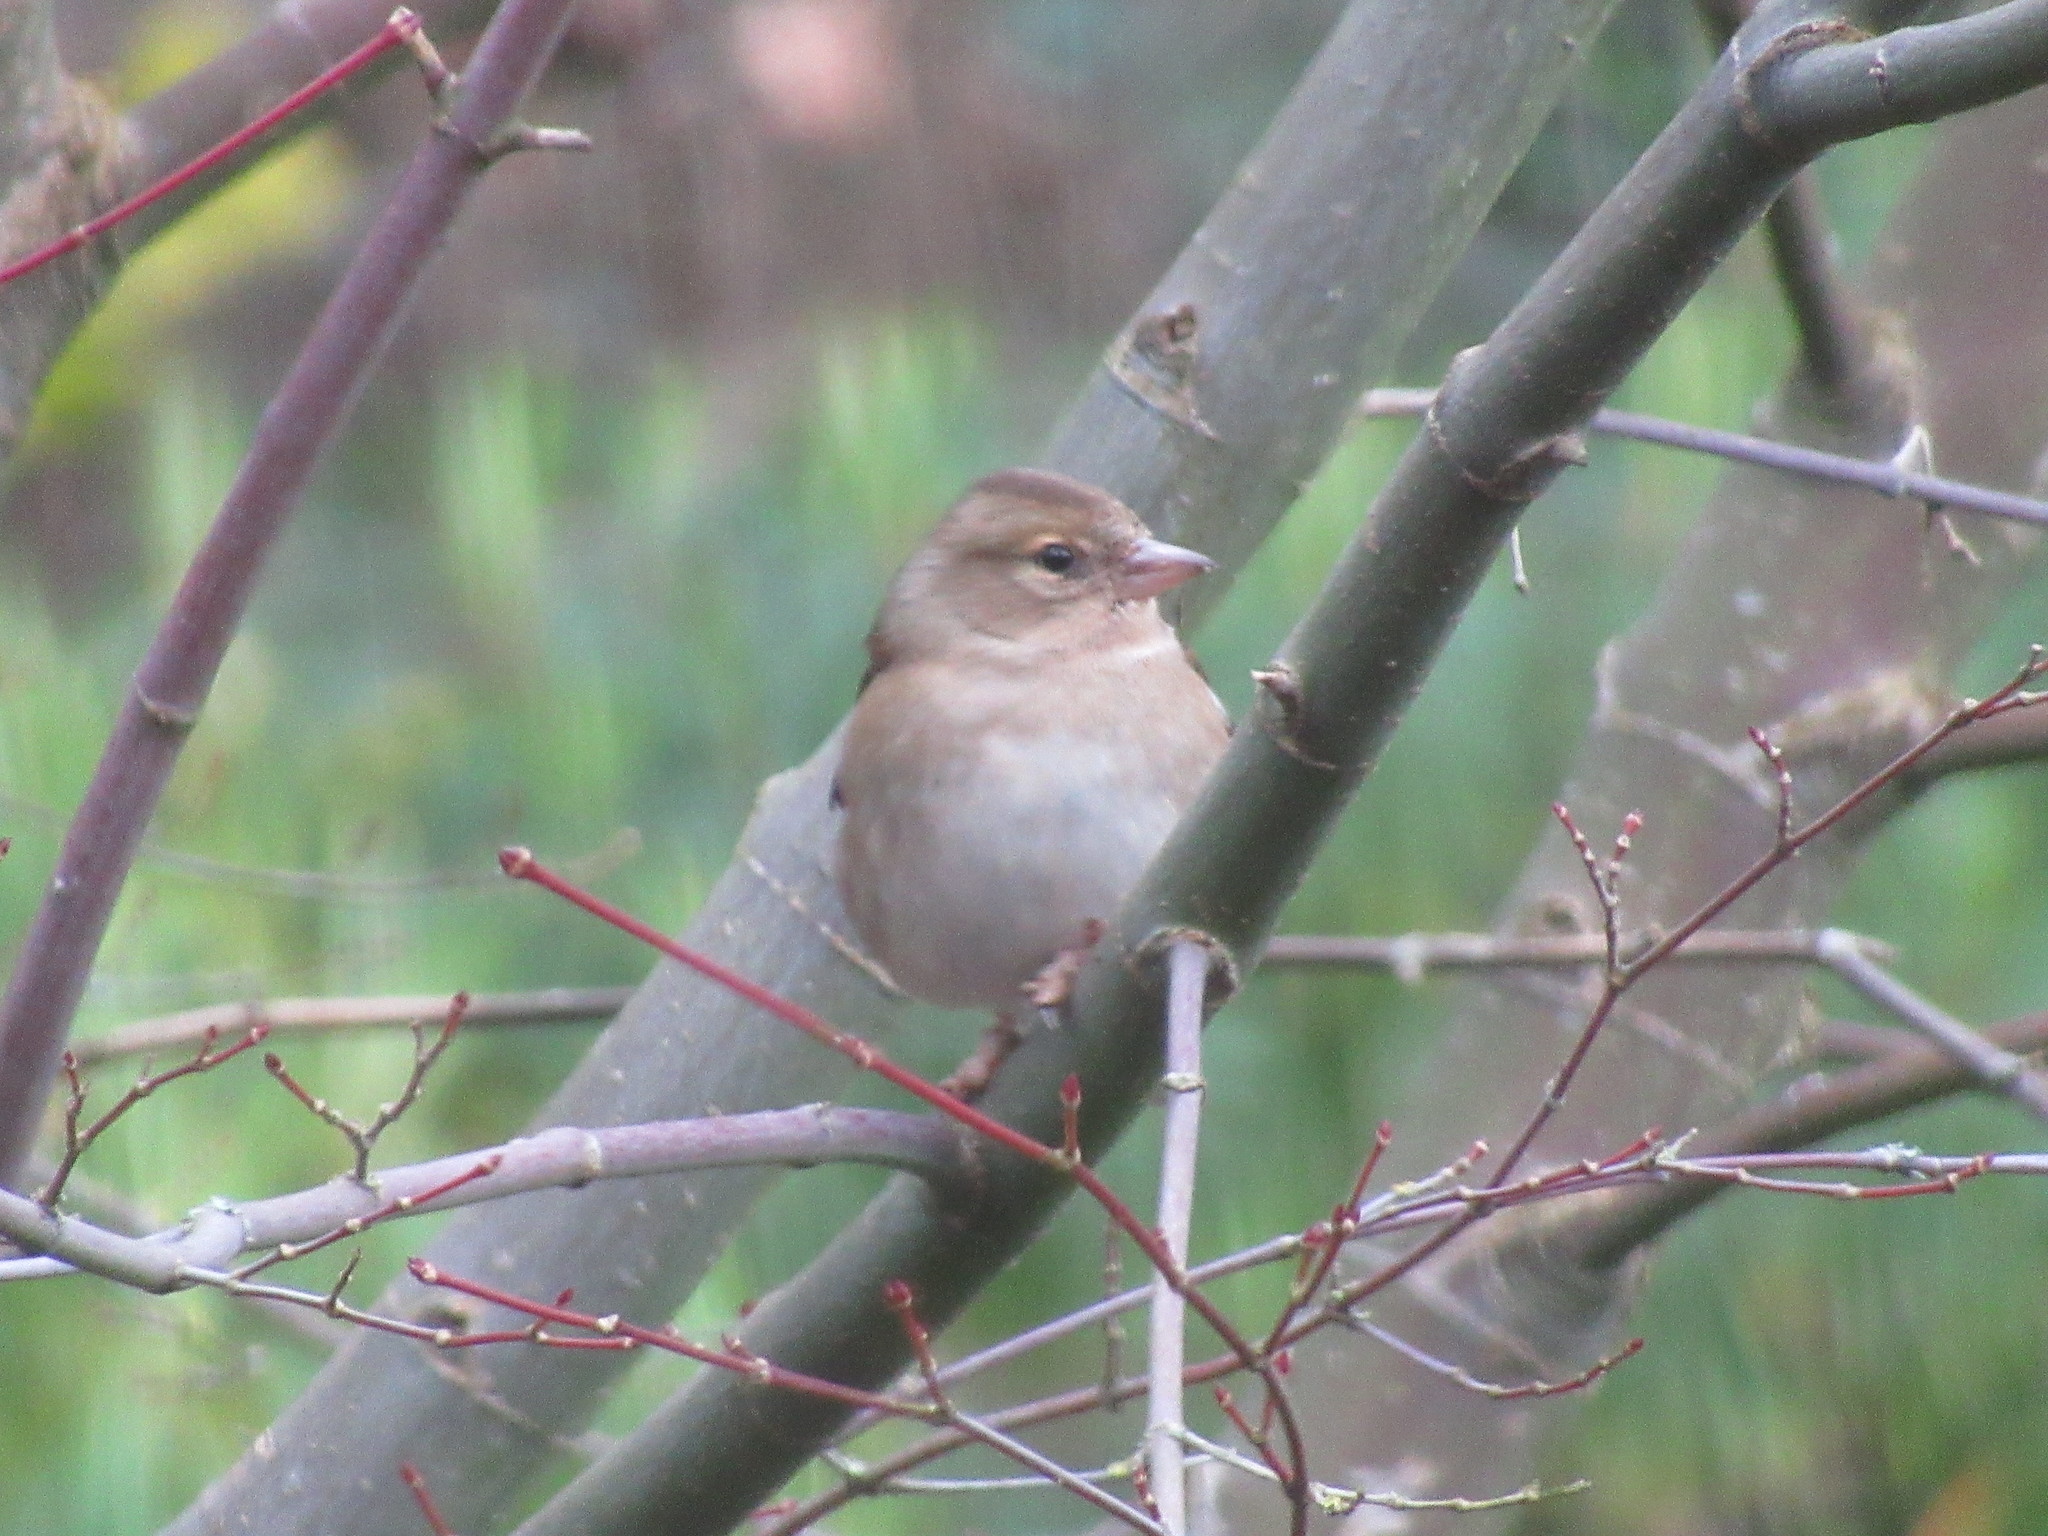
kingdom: Animalia
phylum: Chordata
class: Aves
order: Passeriformes
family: Fringillidae
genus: Fringilla
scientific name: Fringilla coelebs
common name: Common chaffinch
